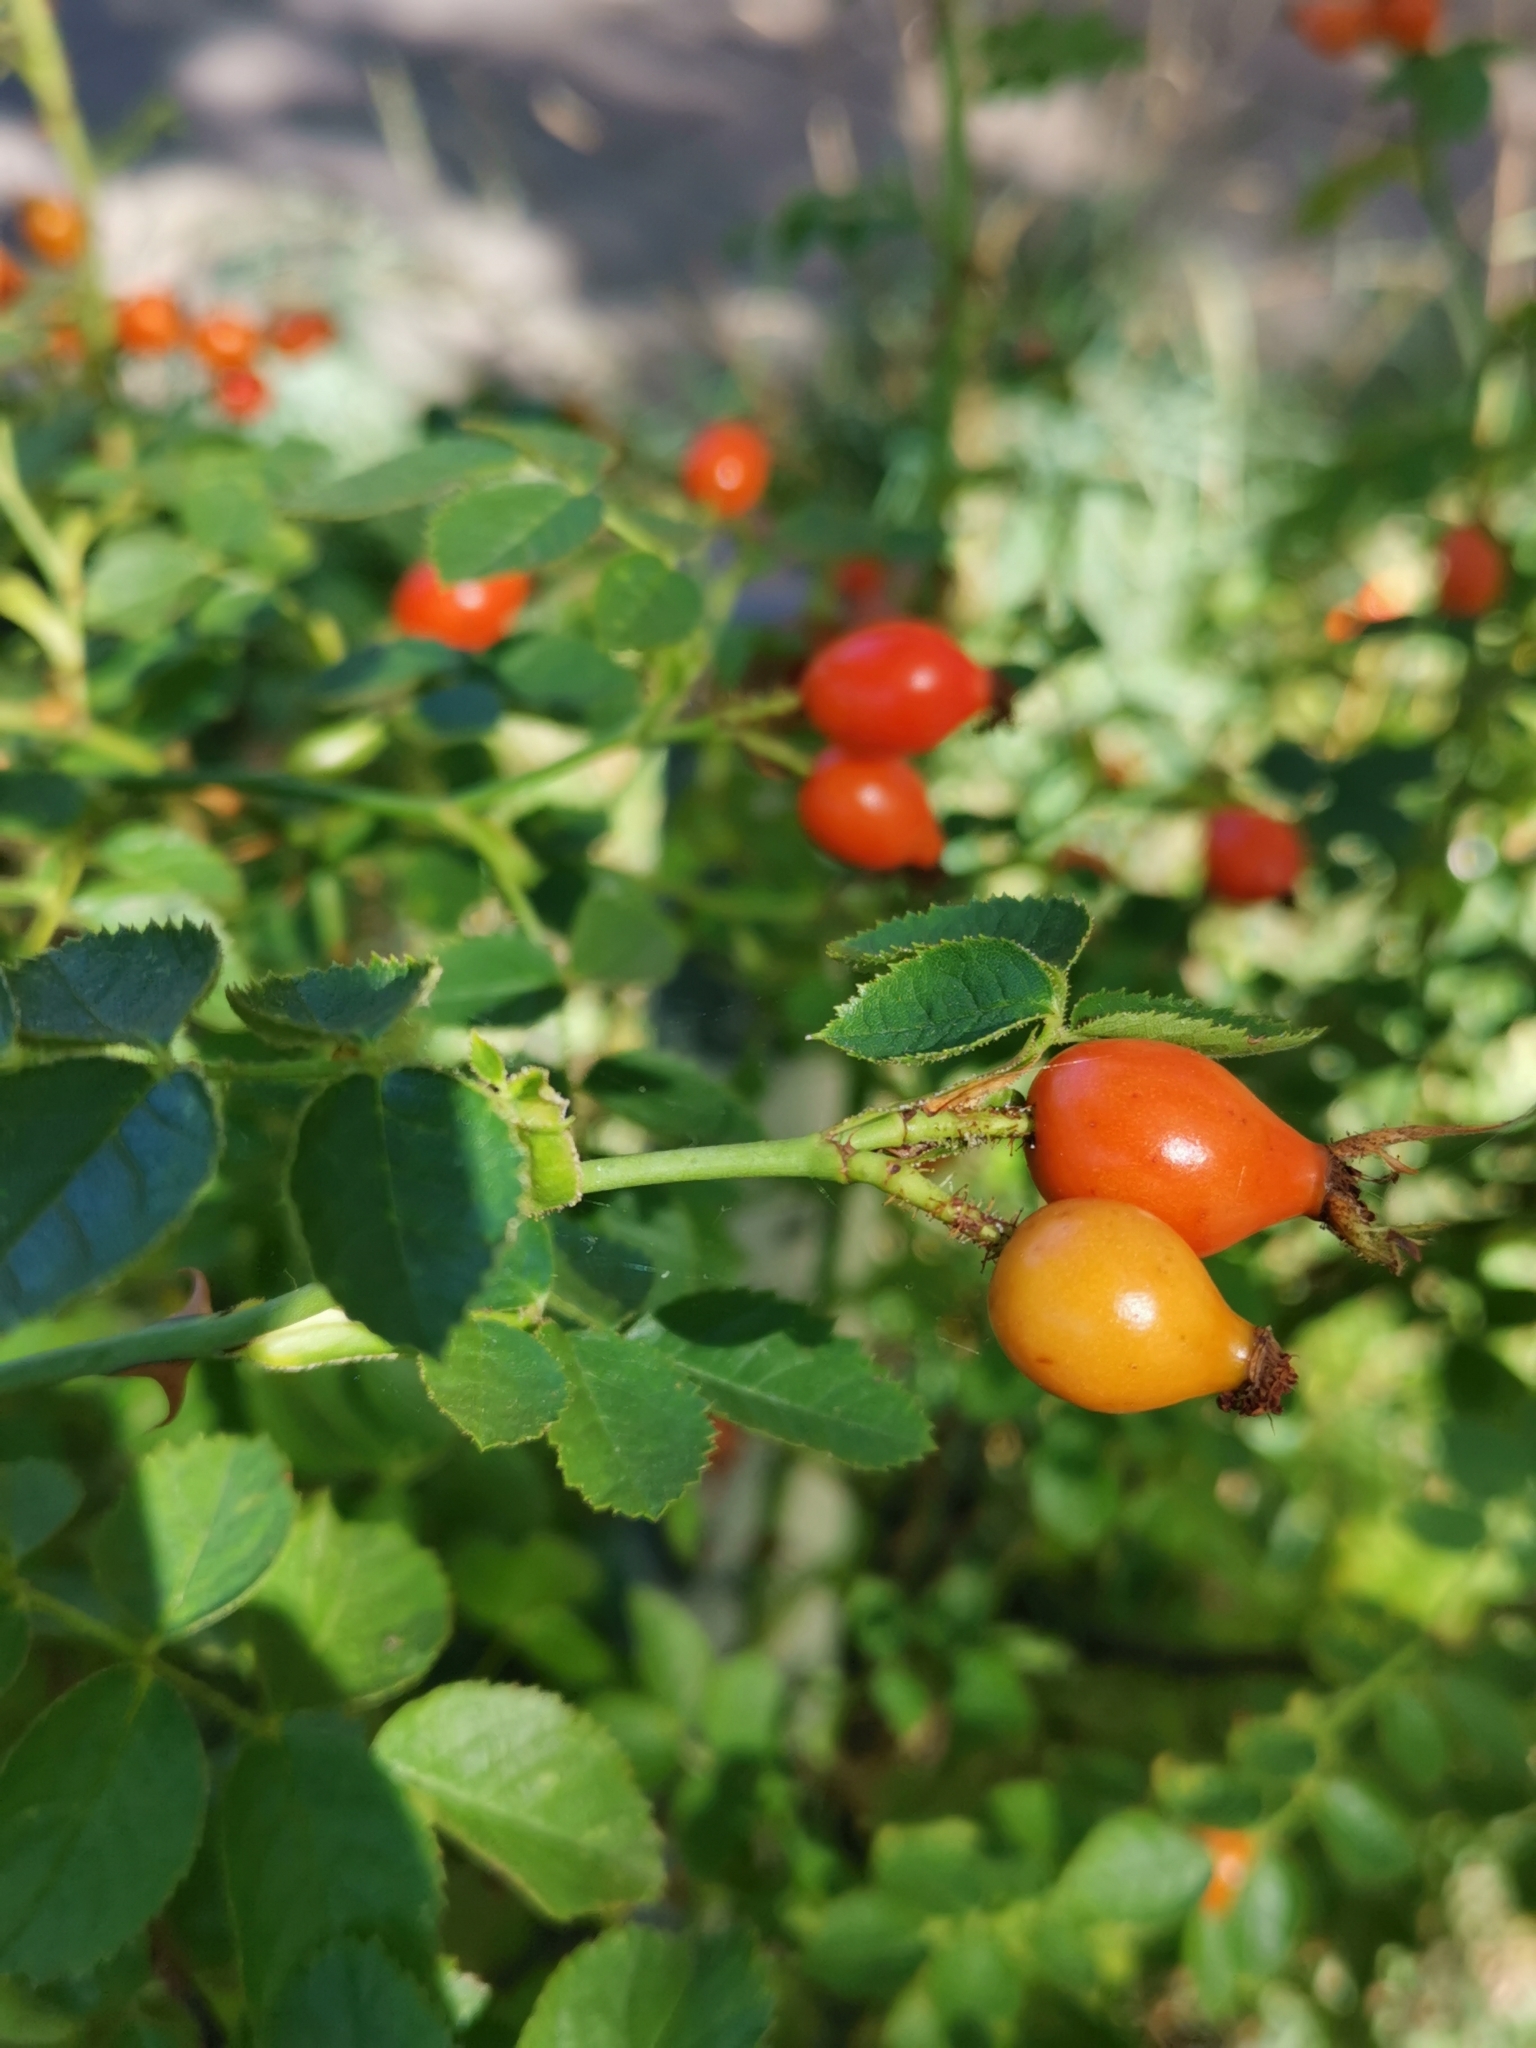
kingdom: Plantae
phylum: Tracheophyta
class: Magnoliopsida
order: Rosales
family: Rosaceae
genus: Rosa
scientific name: Rosa rubiginosa
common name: Sweet-briar
